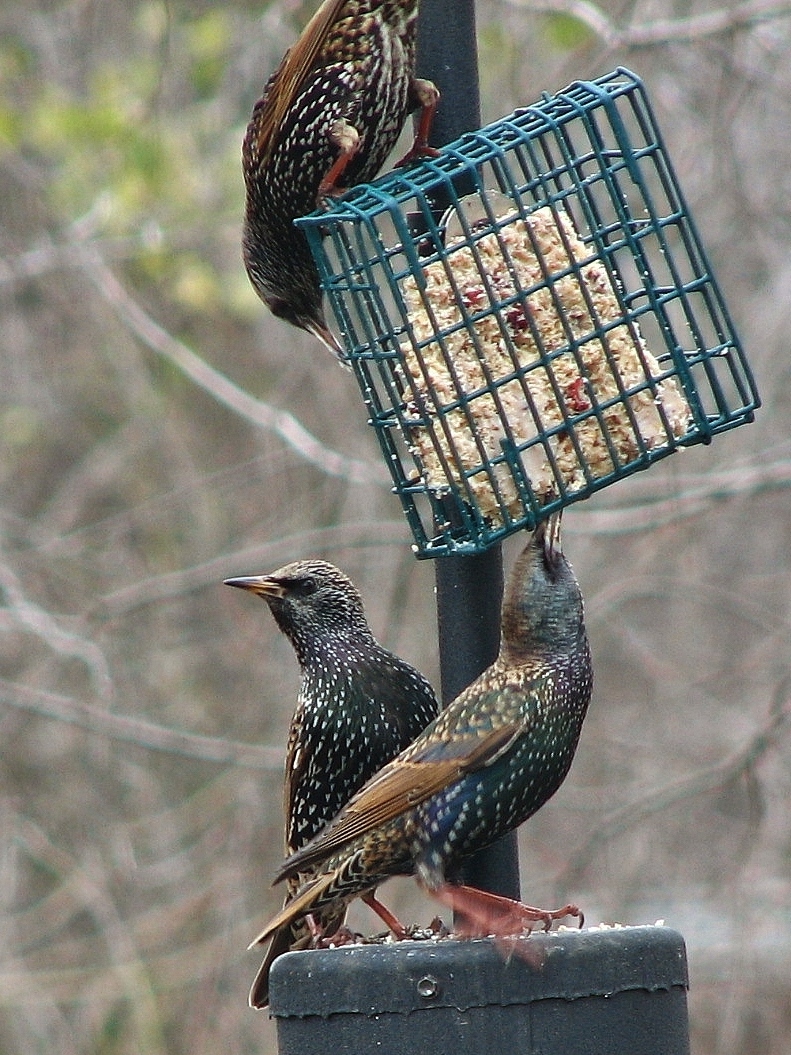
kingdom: Animalia
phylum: Chordata
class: Aves
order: Passeriformes
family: Sturnidae
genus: Sturnus
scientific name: Sturnus vulgaris
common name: Common starling
